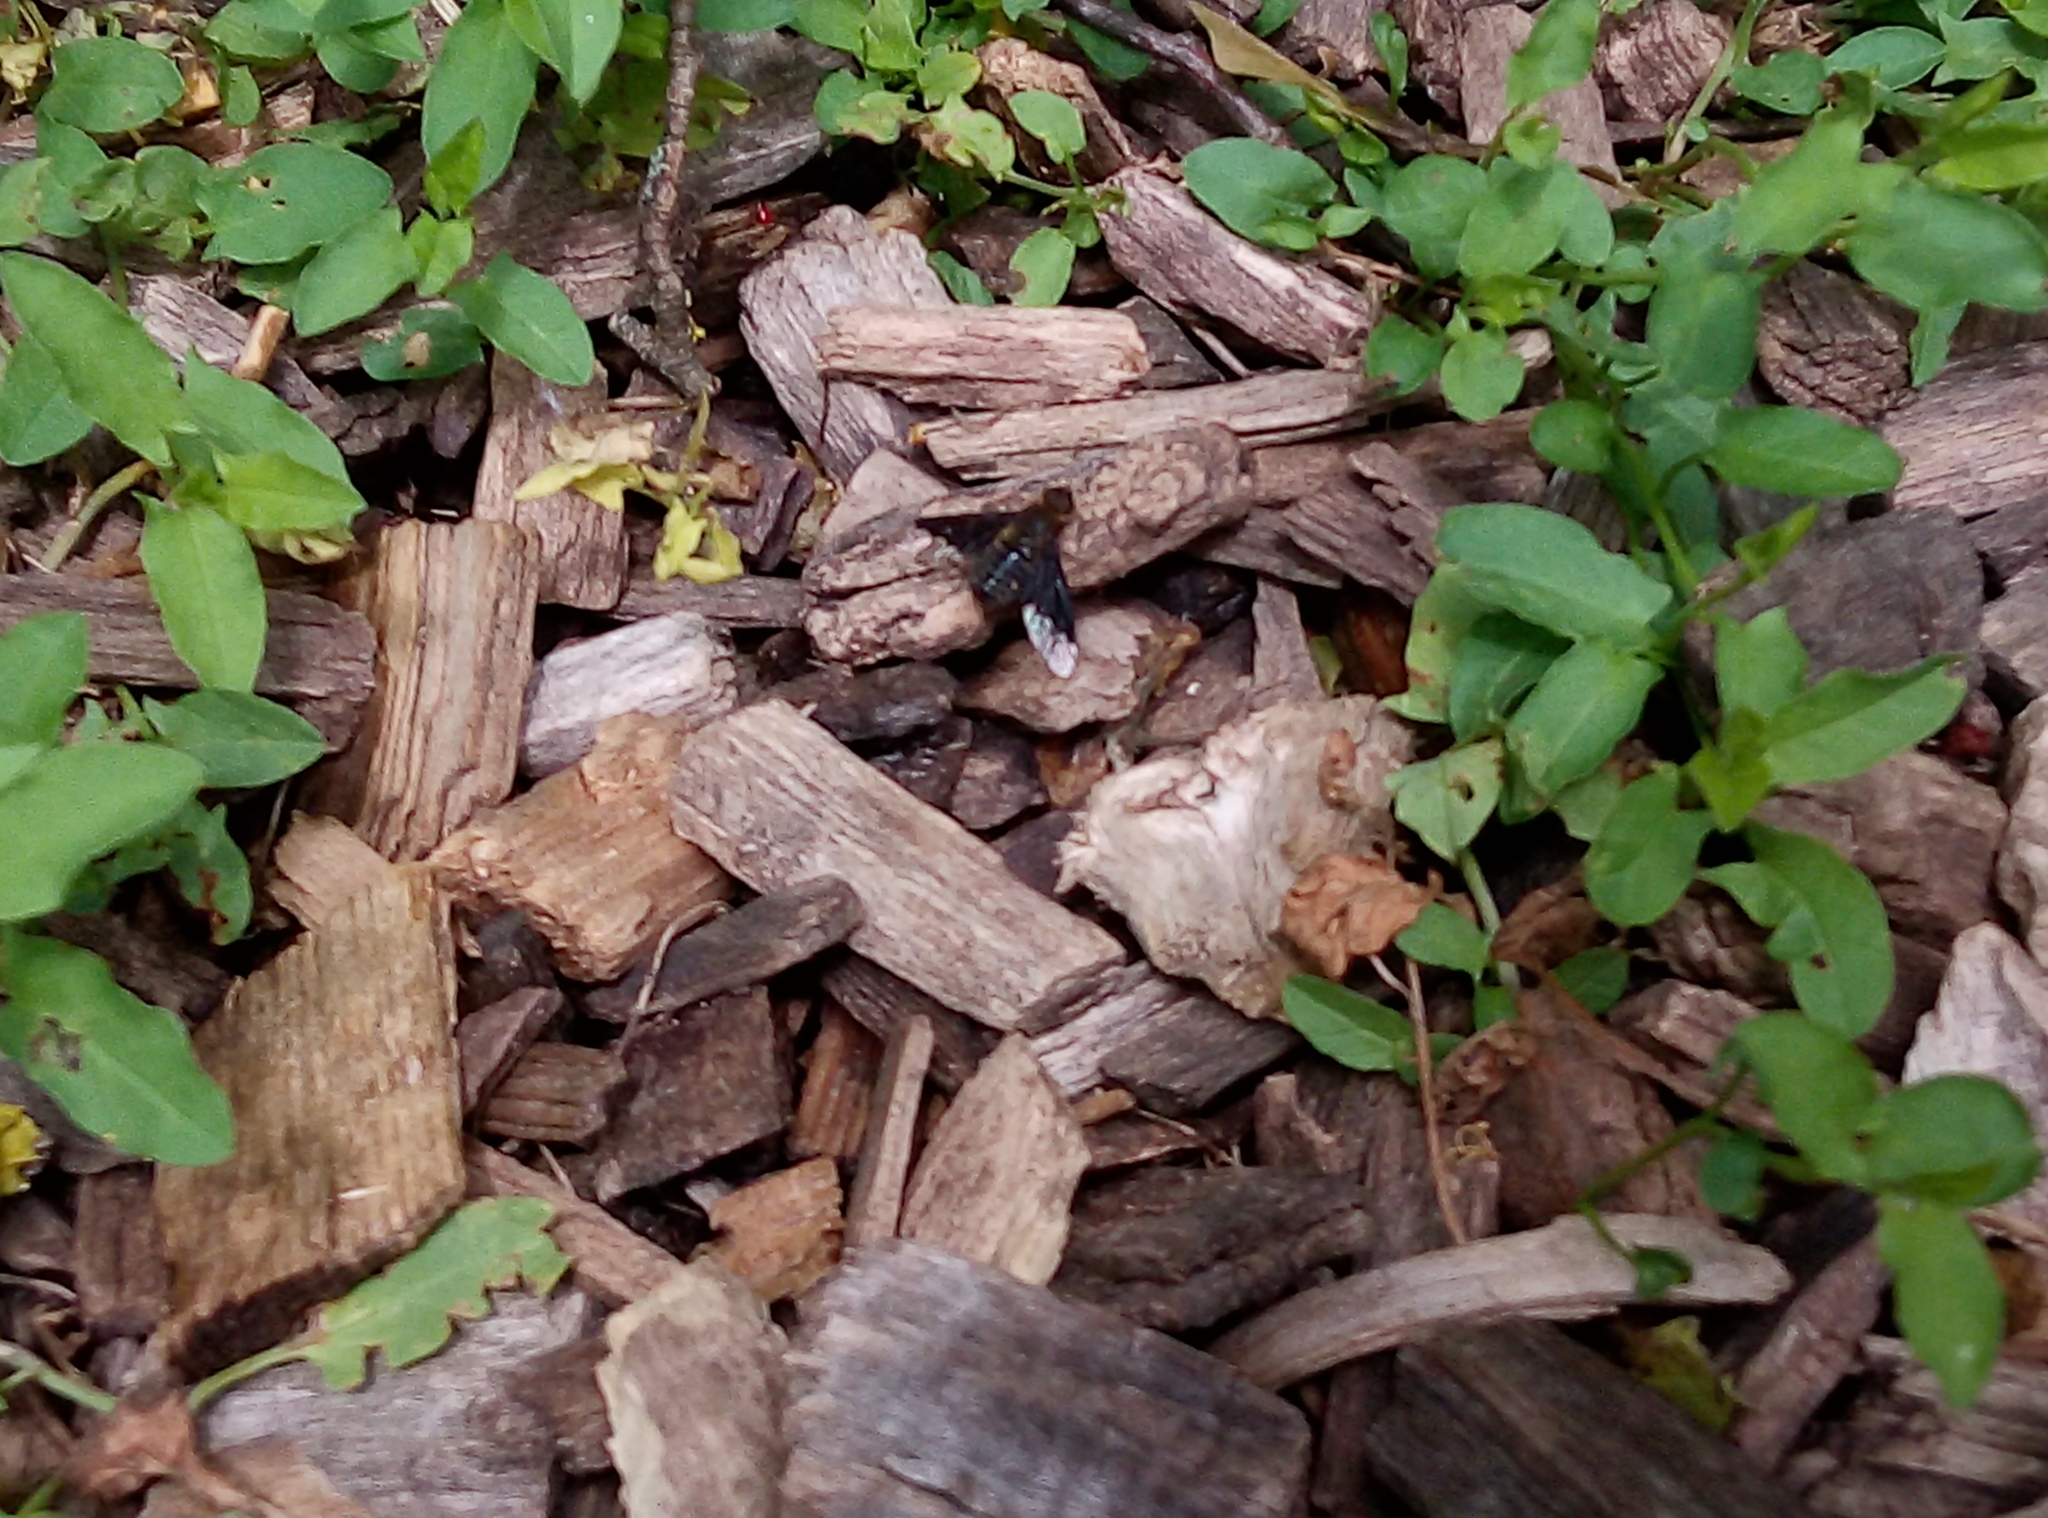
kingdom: Animalia
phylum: Arthropoda
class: Insecta
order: Diptera
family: Bombyliidae
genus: Hemipenthes
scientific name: Hemipenthes morio
